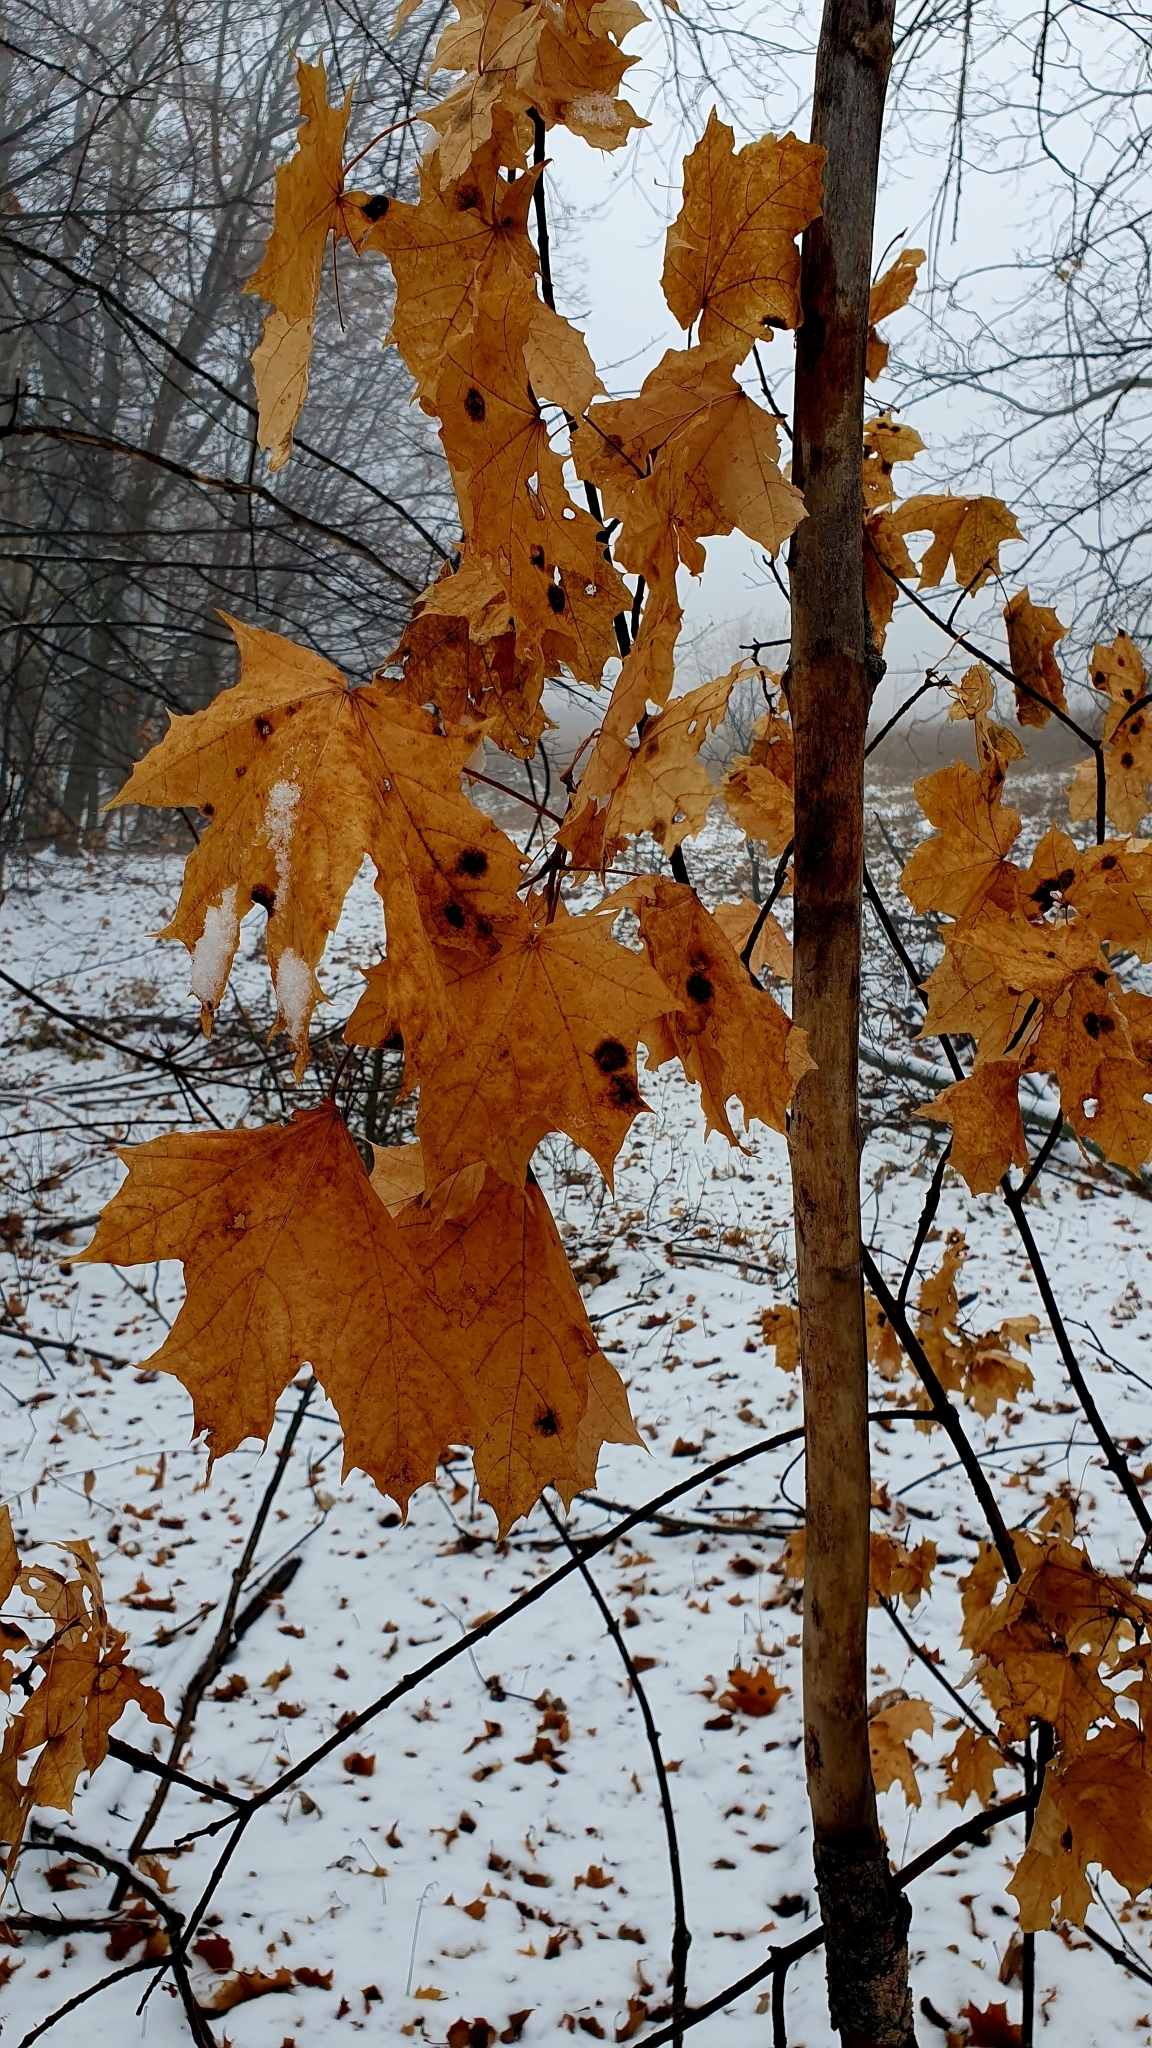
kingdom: Plantae
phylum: Tracheophyta
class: Magnoliopsida
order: Sapindales
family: Sapindaceae
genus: Acer
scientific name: Acer platanoides
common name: Norway maple
